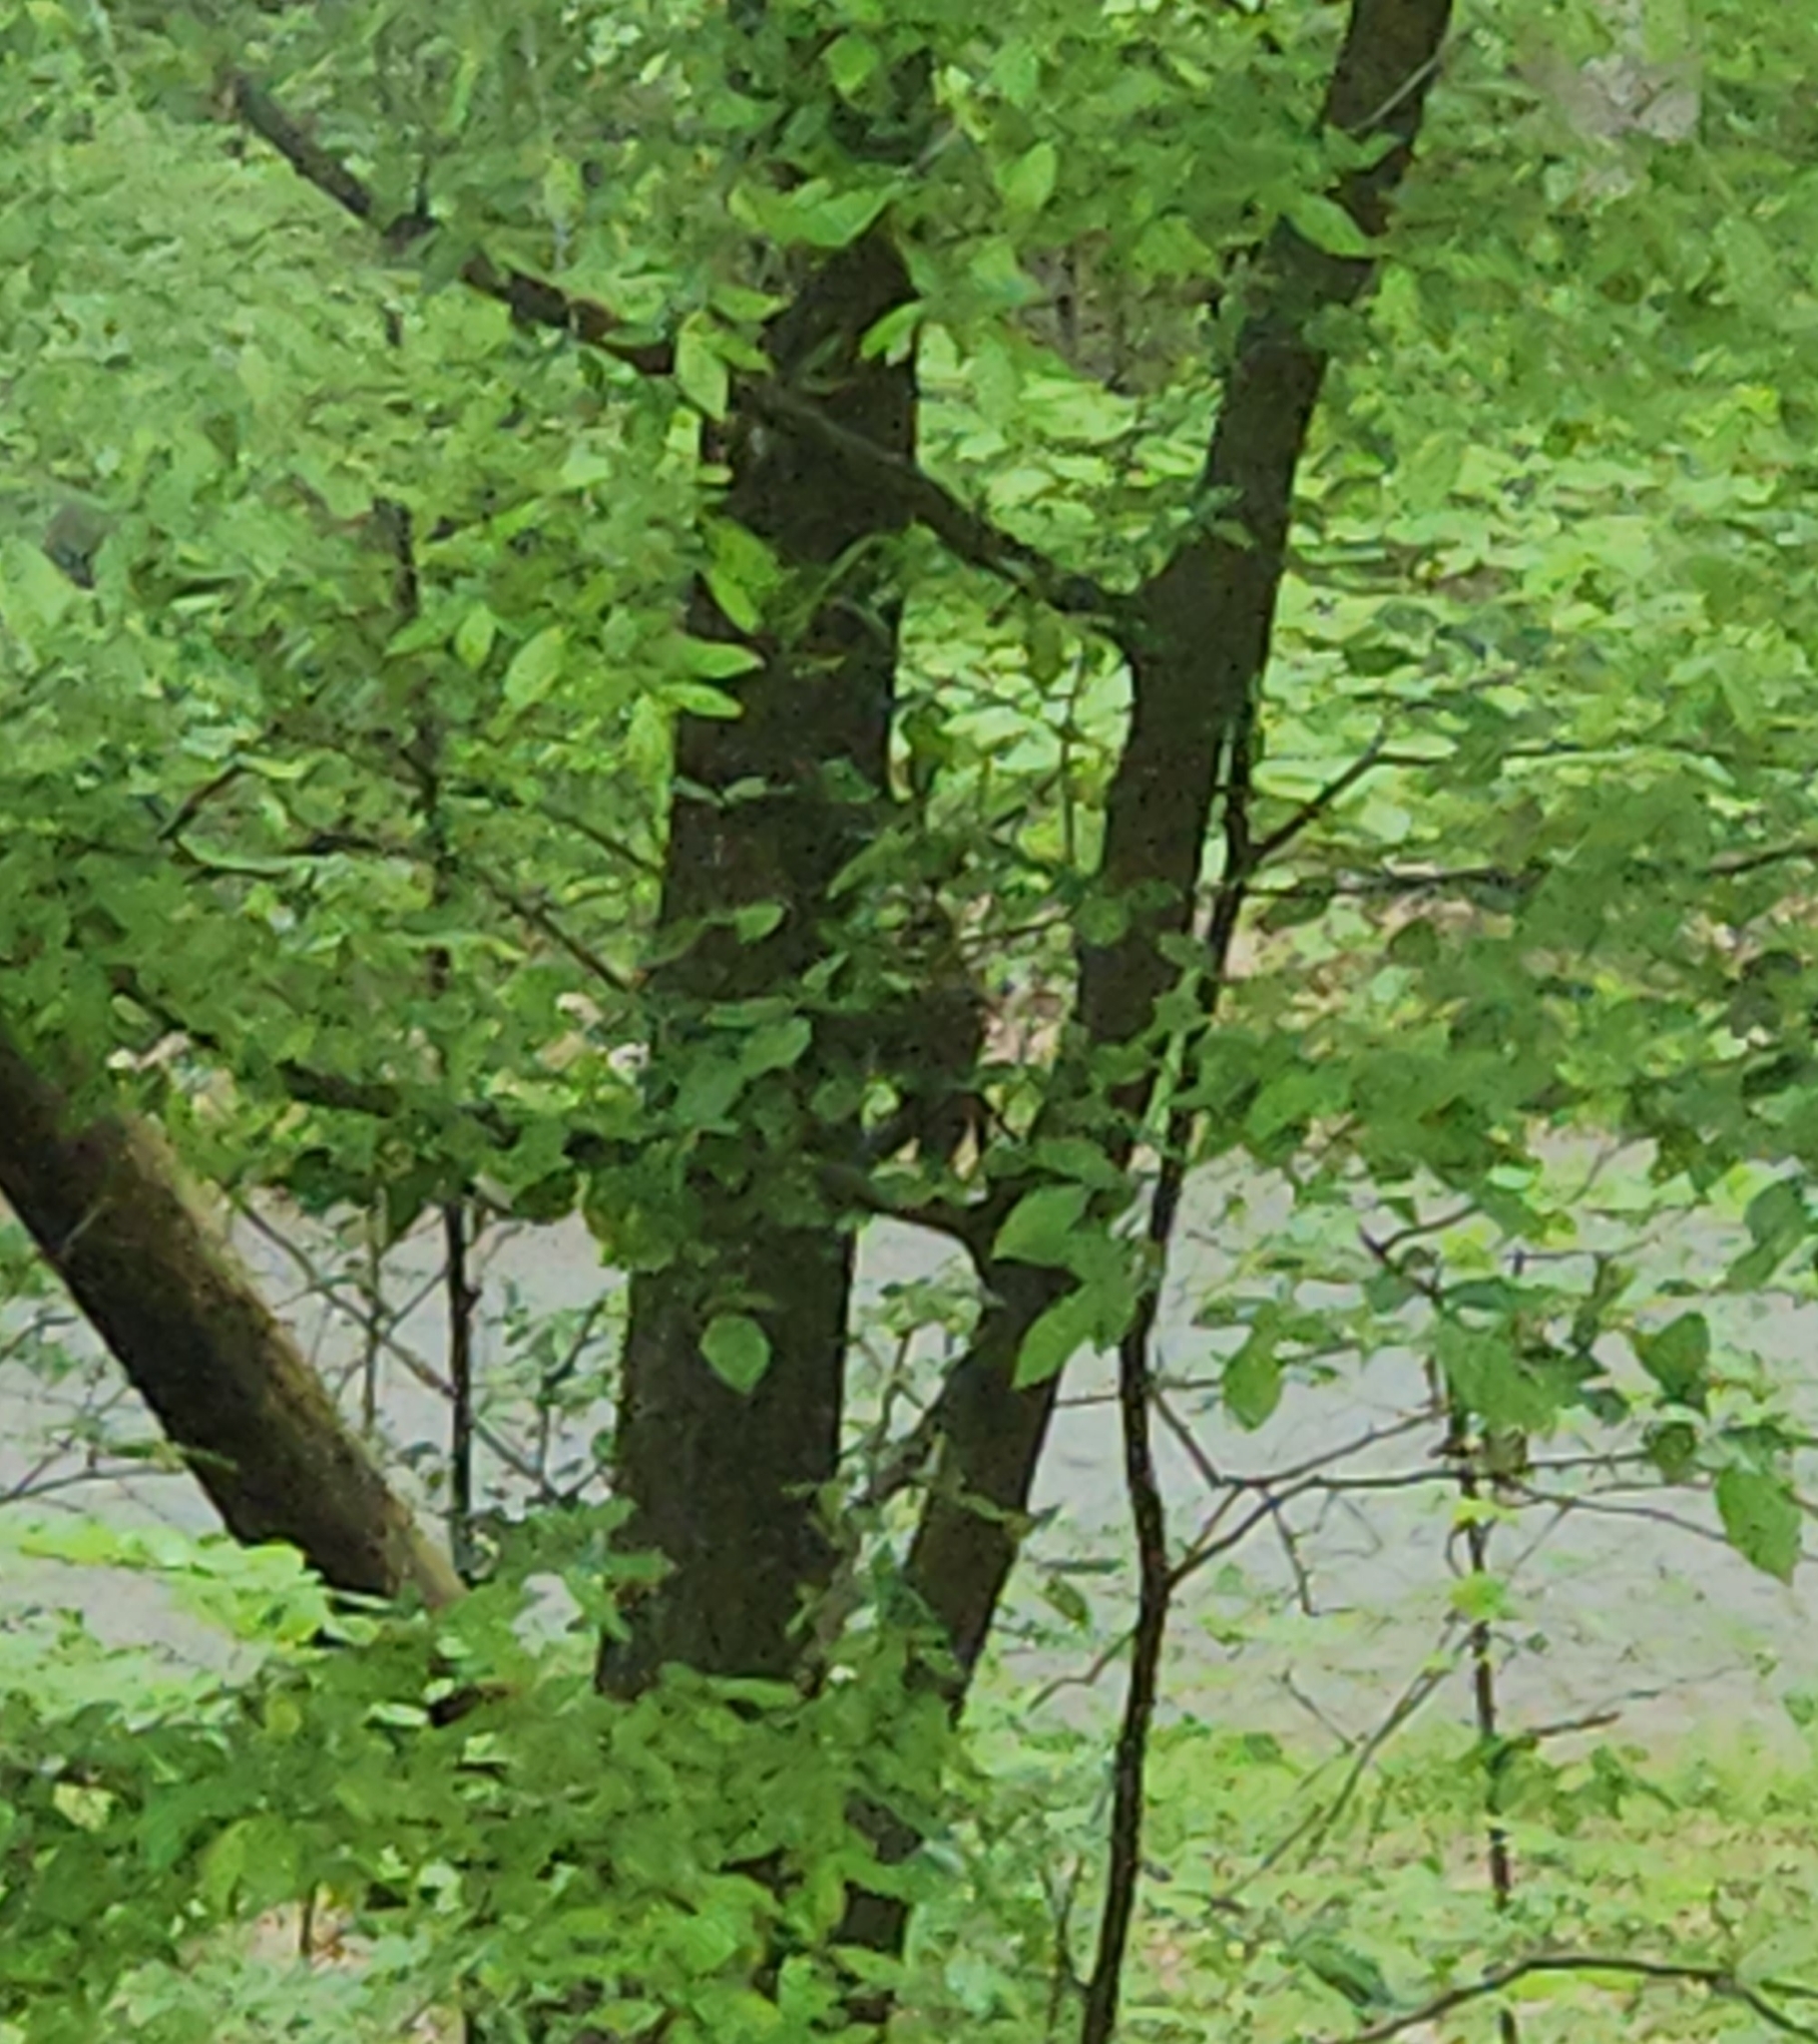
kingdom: Animalia
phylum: Chordata
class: Aves
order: Strigiformes
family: Strigidae
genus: Strix
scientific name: Strix varia
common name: Barred owl
